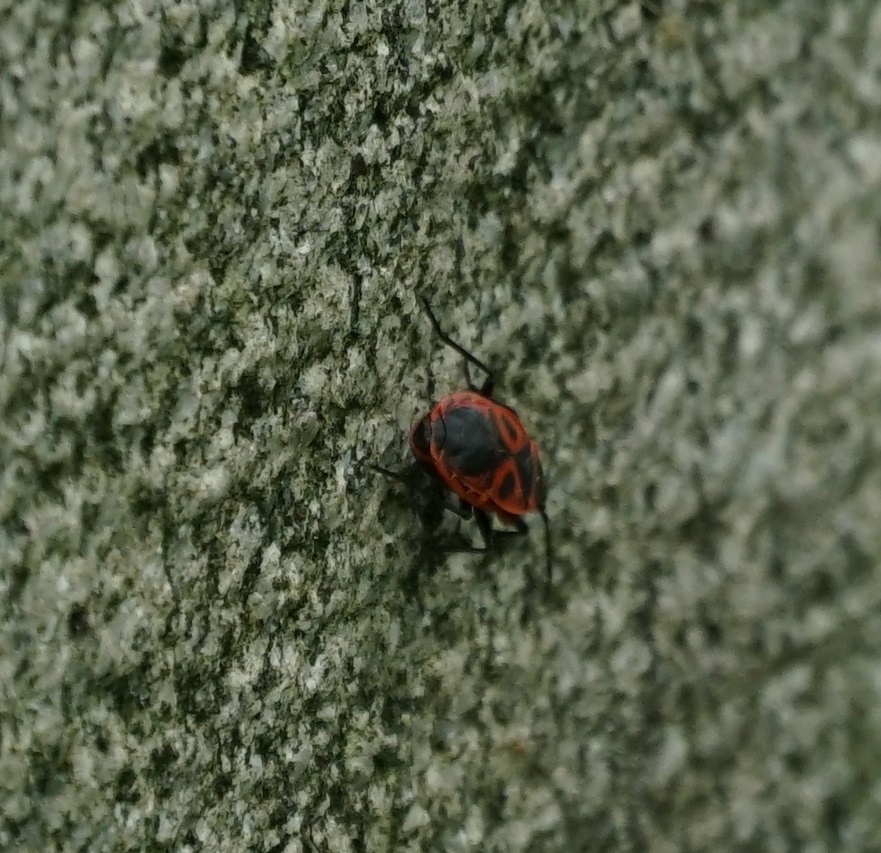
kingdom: Animalia
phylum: Arthropoda
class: Insecta
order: Hemiptera
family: Pyrrhocoridae
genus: Pyrrhocoris
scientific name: Pyrrhocoris apterus
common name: Firebug
